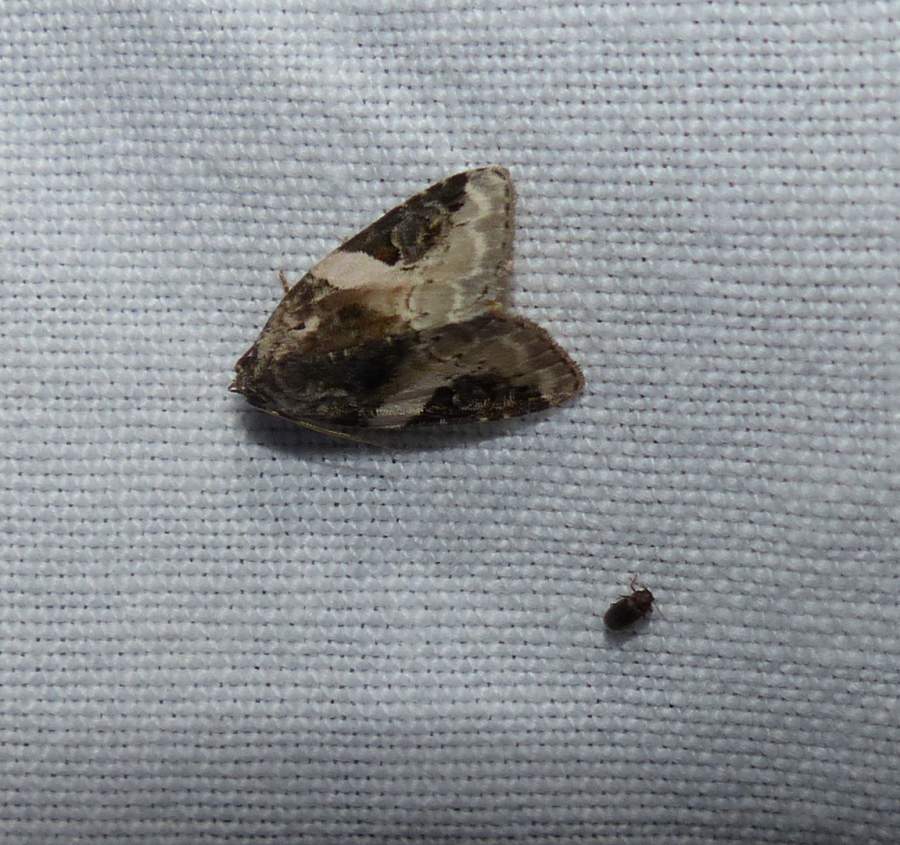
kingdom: Animalia
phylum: Arthropoda
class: Insecta
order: Lepidoptera
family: Noctuidae
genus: Pseudeustrotia
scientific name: Pseudeustrotia carneola
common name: Pink-barred lithacodia moth
